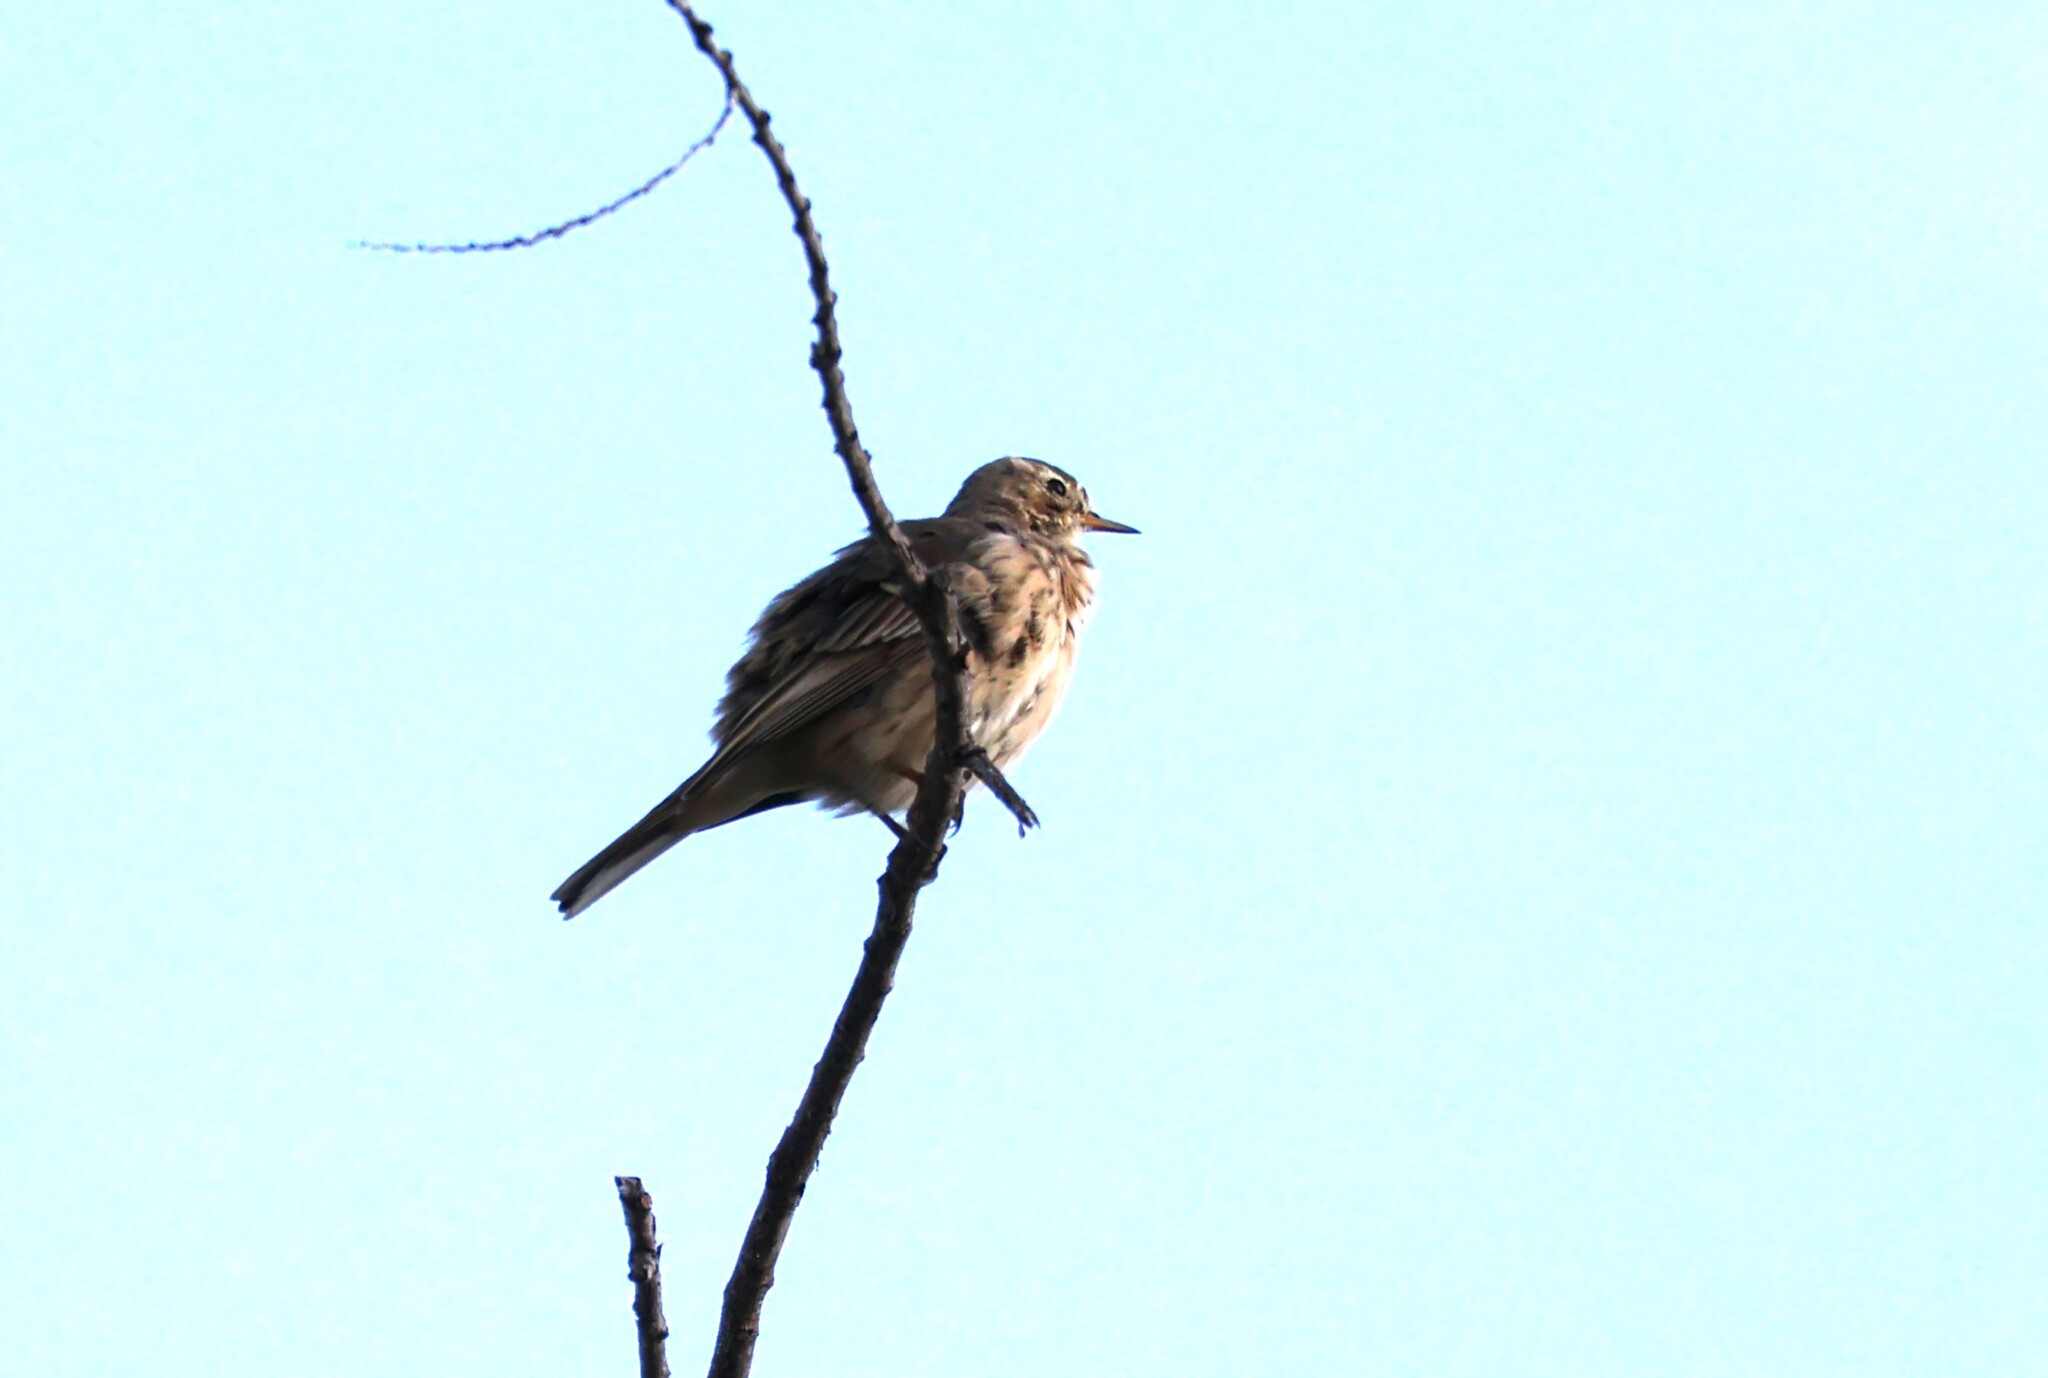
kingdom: Animalia
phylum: Chordata
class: Aves
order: Passeriformes
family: Motacillidae
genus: Anthus
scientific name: Anthus rubescens
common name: Buff-bellied pipit
